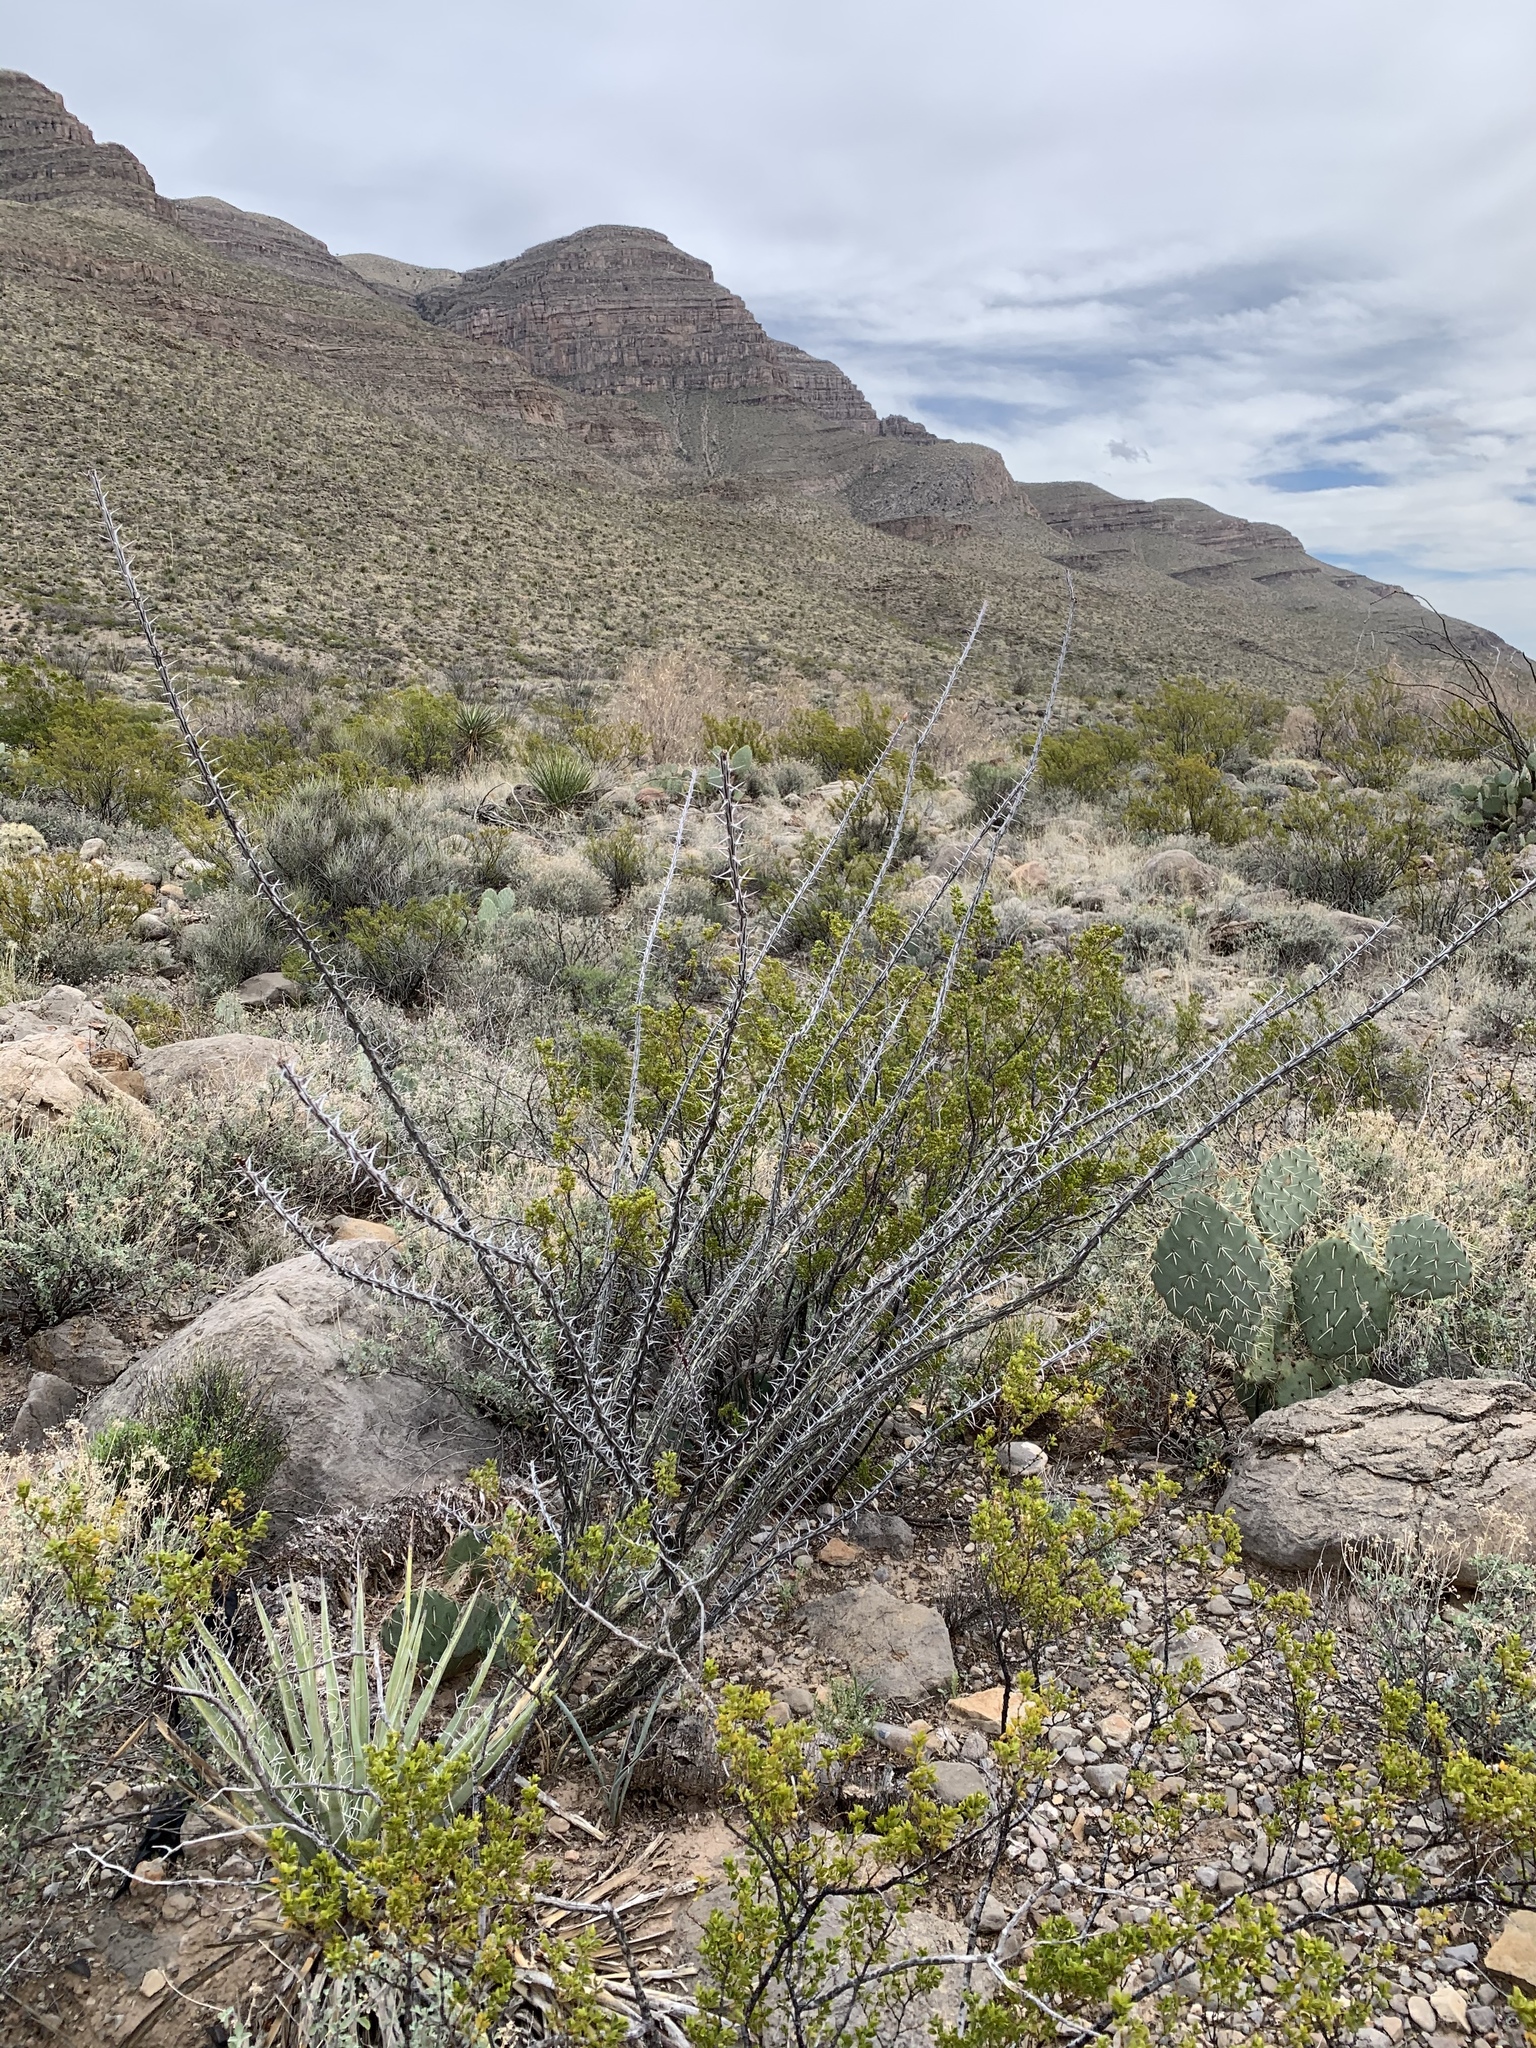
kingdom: Plantae
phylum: Tracheophyta
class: Magnoliopsida
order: Ericales
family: Fouquieriaceae
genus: Fouquieria
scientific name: Fouquieria splendens
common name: Vine-cactus
